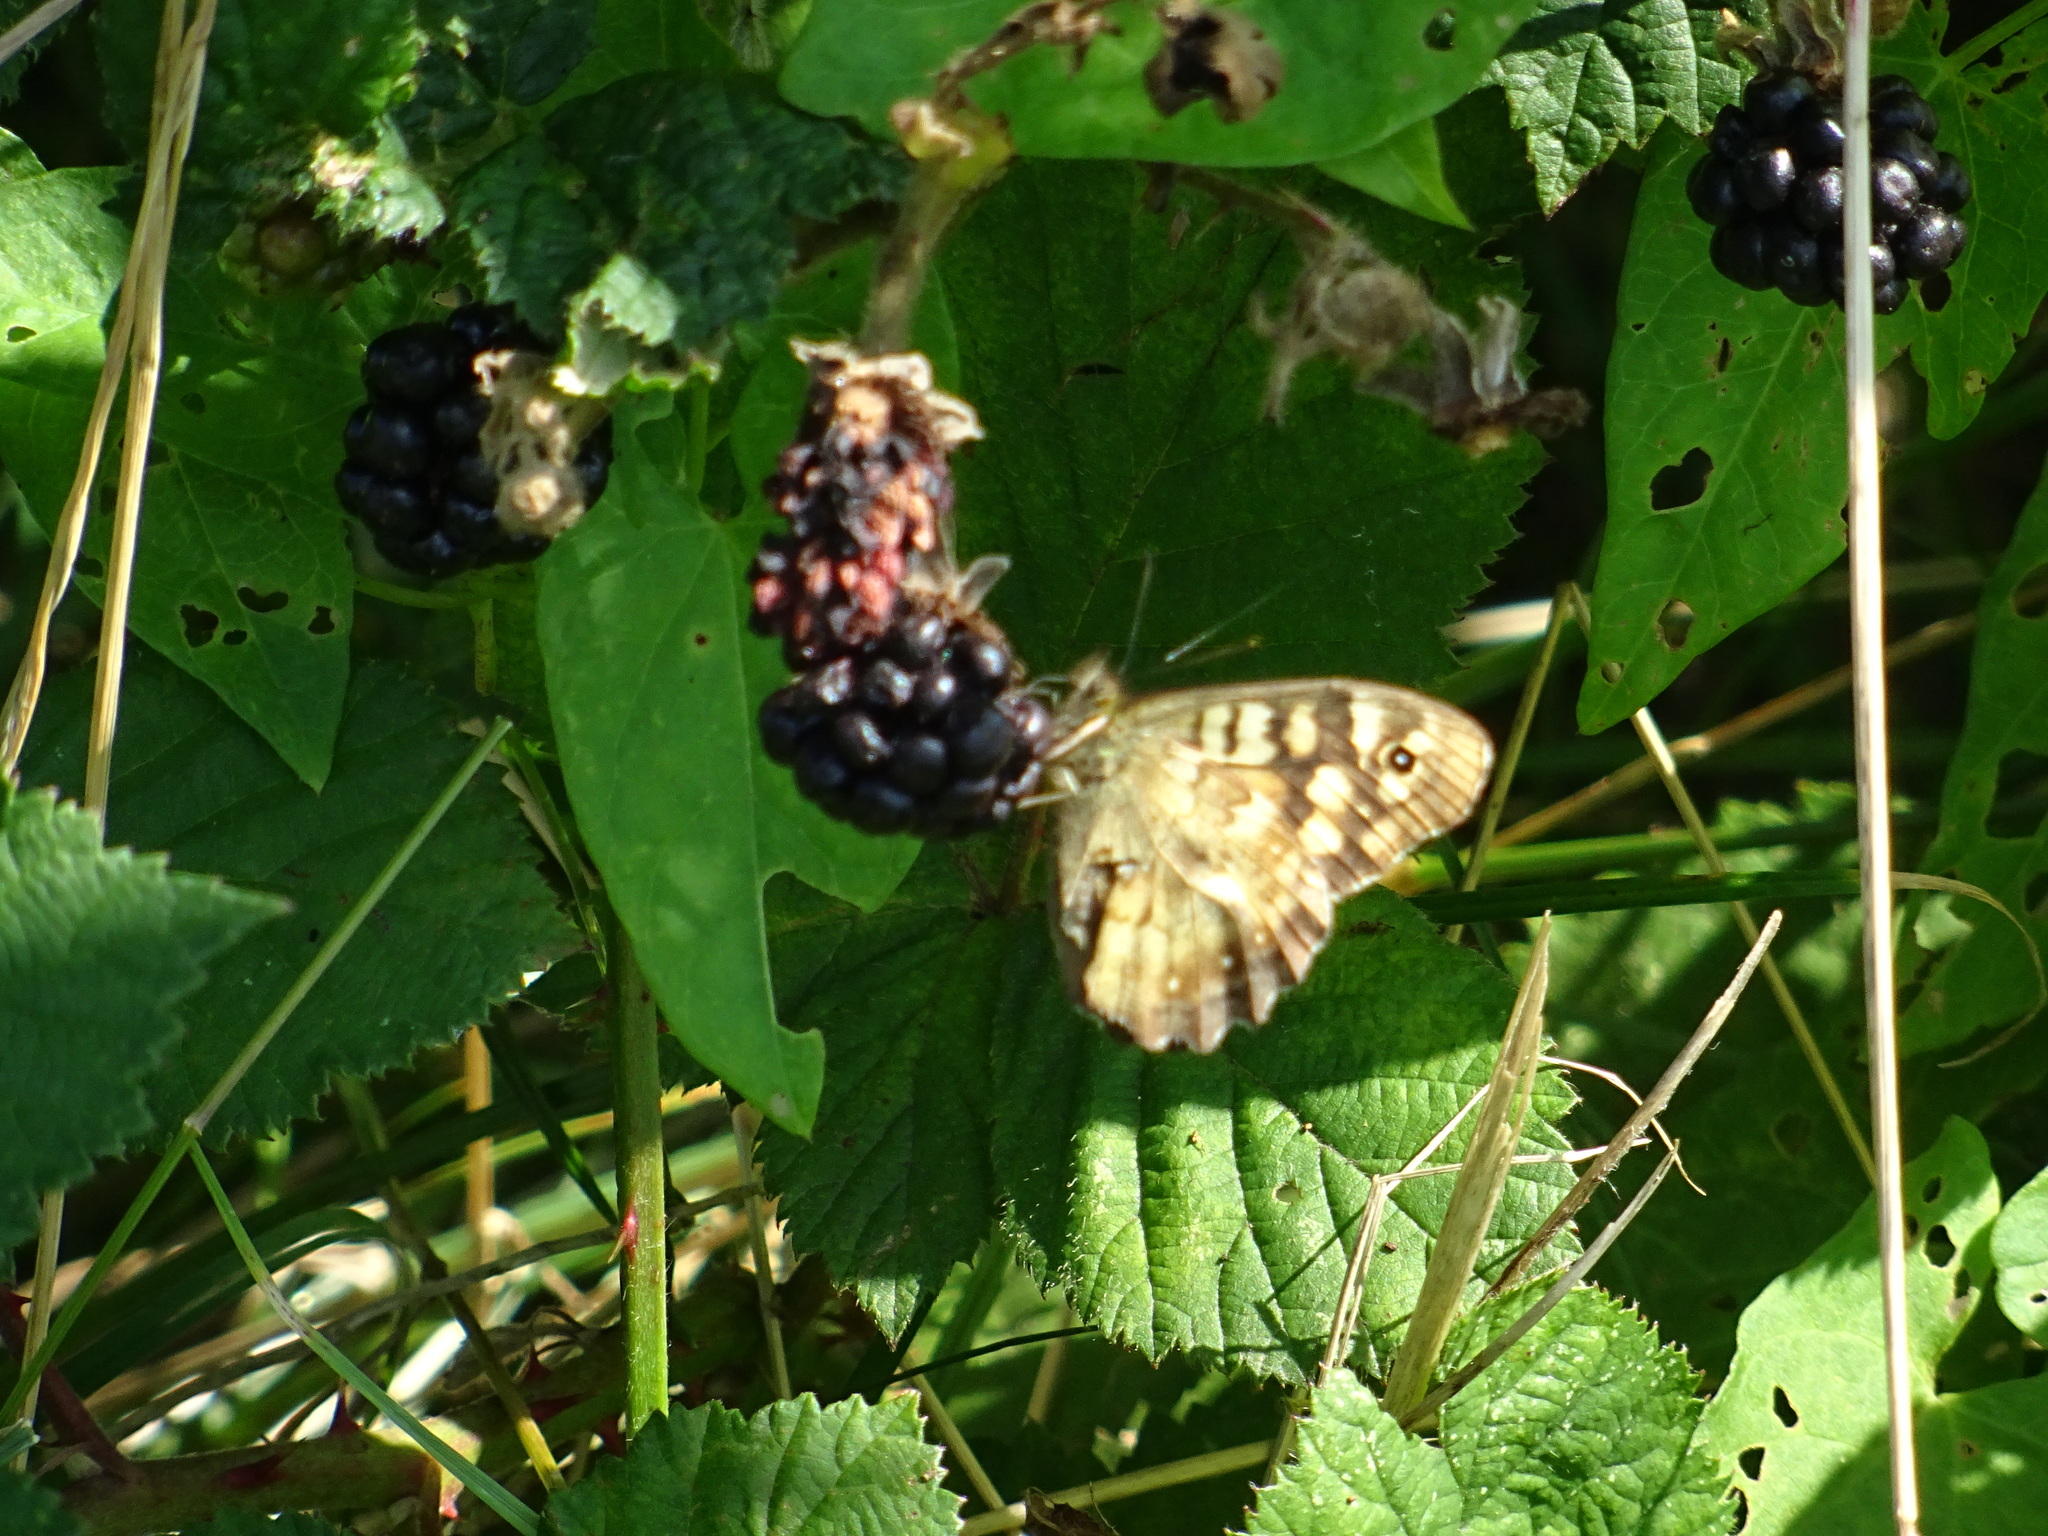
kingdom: Animalia
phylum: Arthropoda
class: Insecta
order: Lepidoptera
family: Nymphalidae
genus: Pararge
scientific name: Pararge aegeria
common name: Speckled wood
